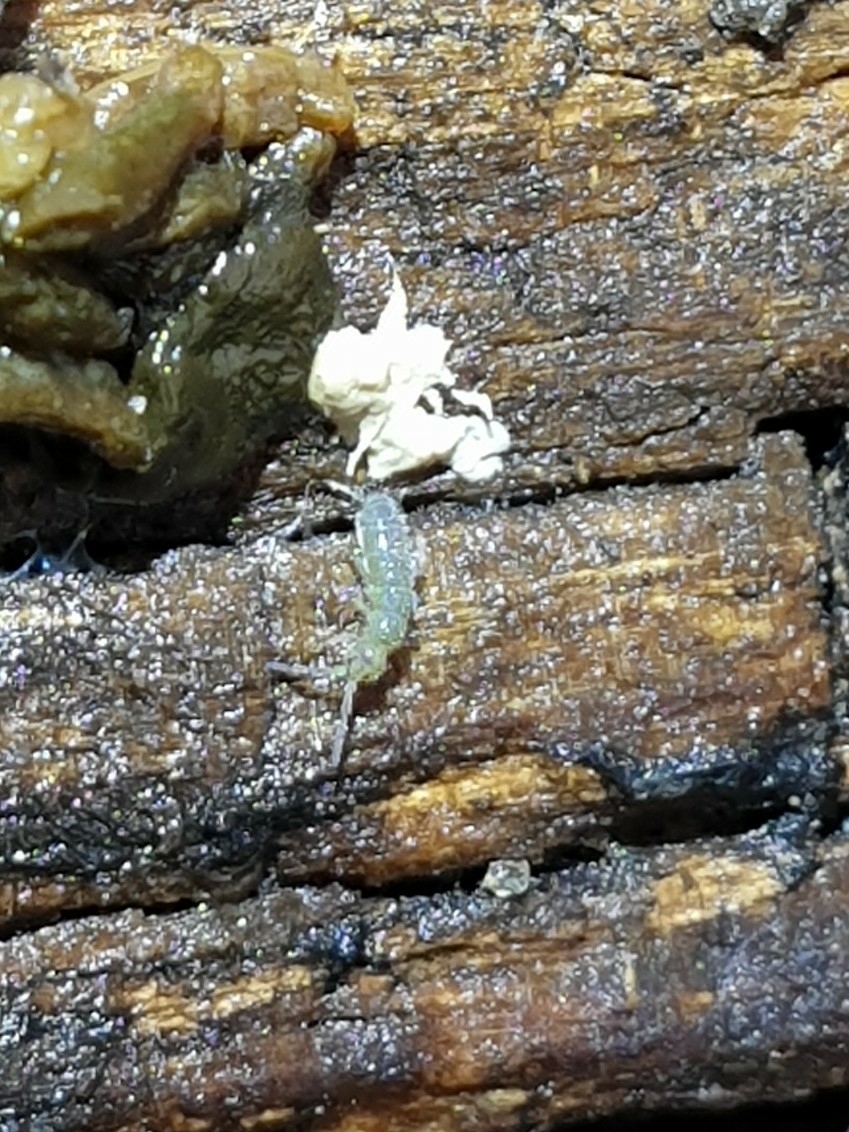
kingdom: Animalia
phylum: Arthropoda
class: Collembola
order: Entomobryomorpha
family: Isotomidae
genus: Isotoma
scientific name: Isotoma viridis
